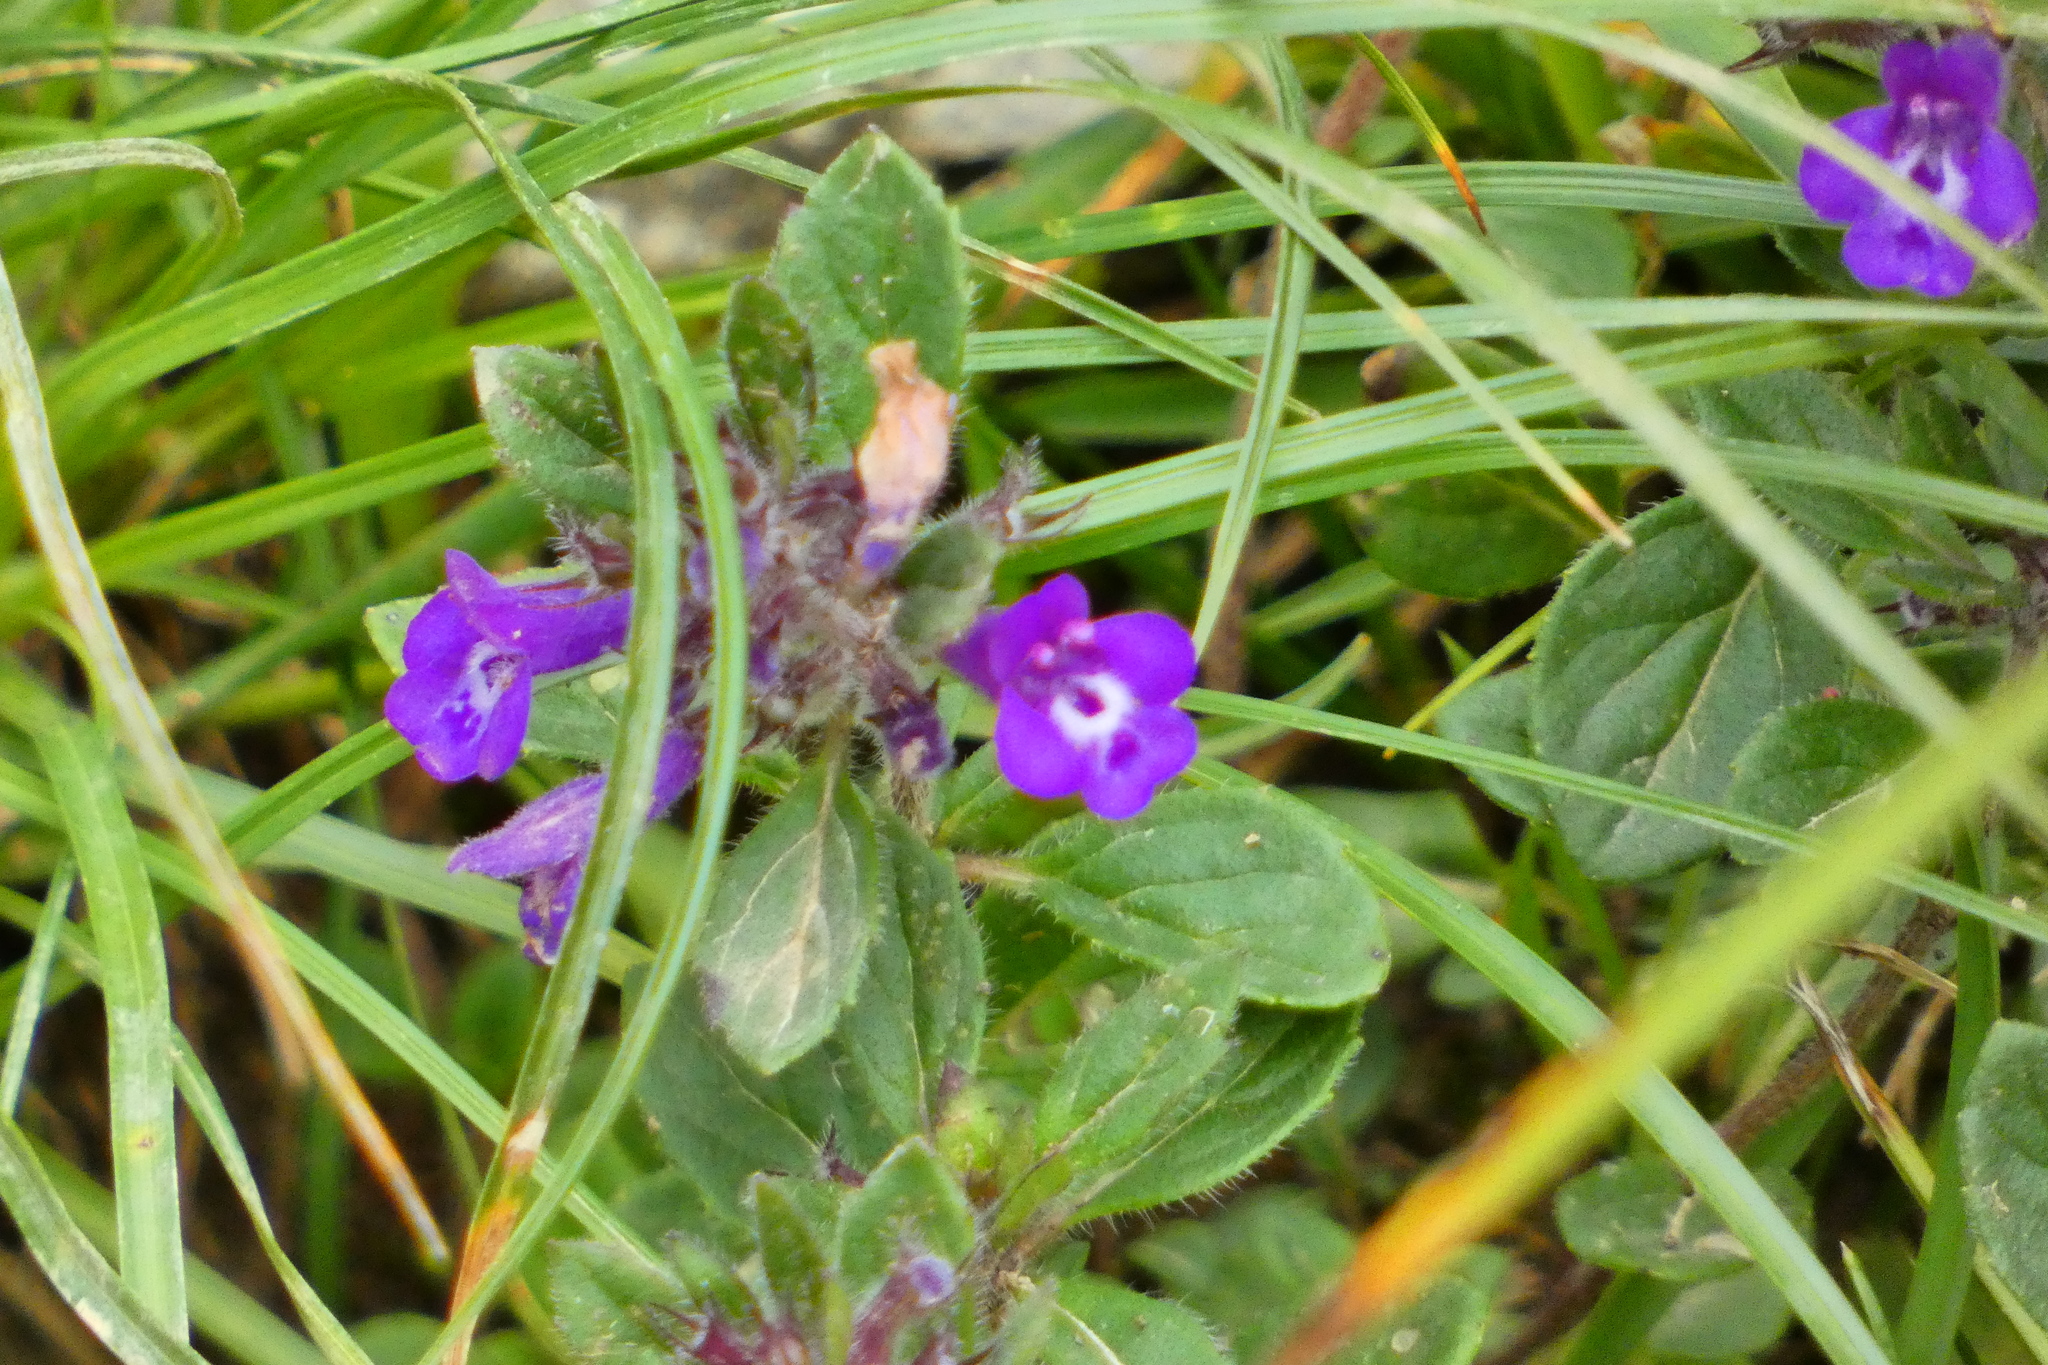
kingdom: Plantae
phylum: Tracheophyta
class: Magnoliopsida
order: Lamiales
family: Lamiaceae
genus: Clinopodium
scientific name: Clinopodium alpinum
